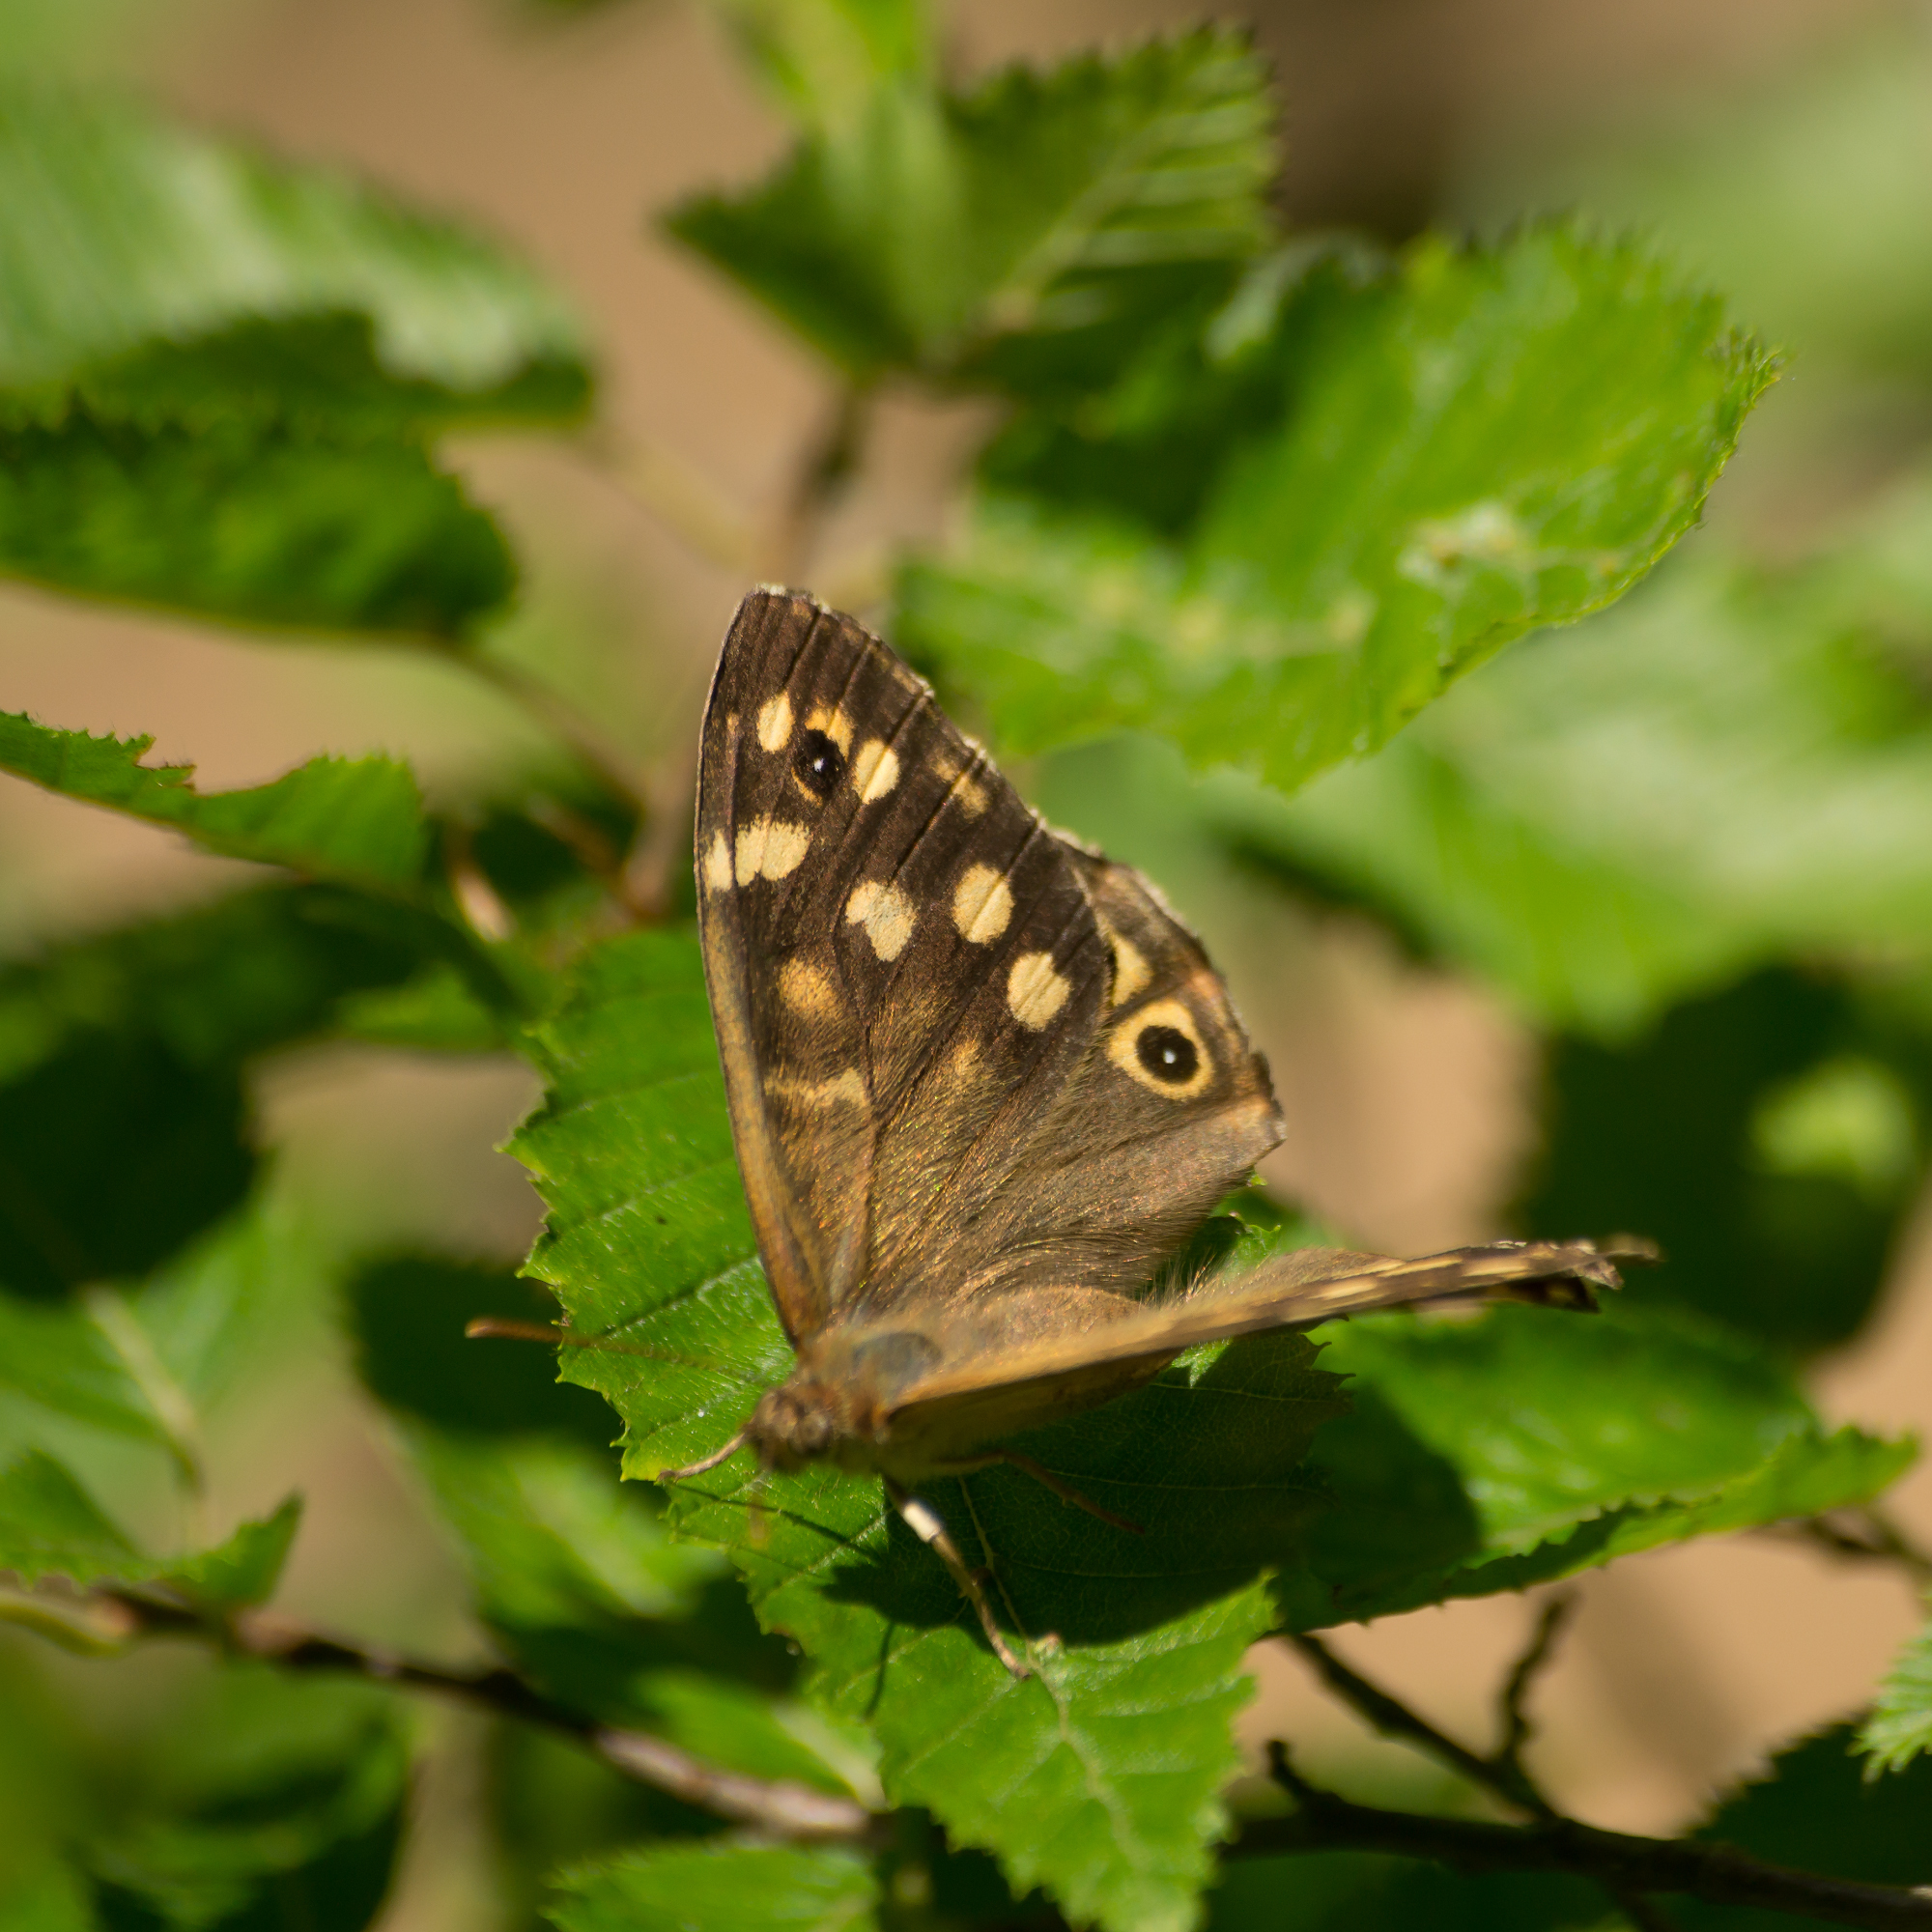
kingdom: Animalia
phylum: Arthropoda
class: Insecta
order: Lepidoptera
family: Nymphalidae
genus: Pararge
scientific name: Pararge aegeria
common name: Speckled wood
